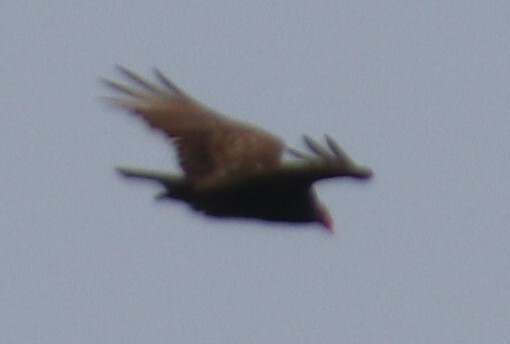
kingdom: Animalia
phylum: Chordata
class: Aves
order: Accipitriformes
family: Cathartidae
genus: Cathartes
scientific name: Cathartes aura
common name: Turkey vulture
